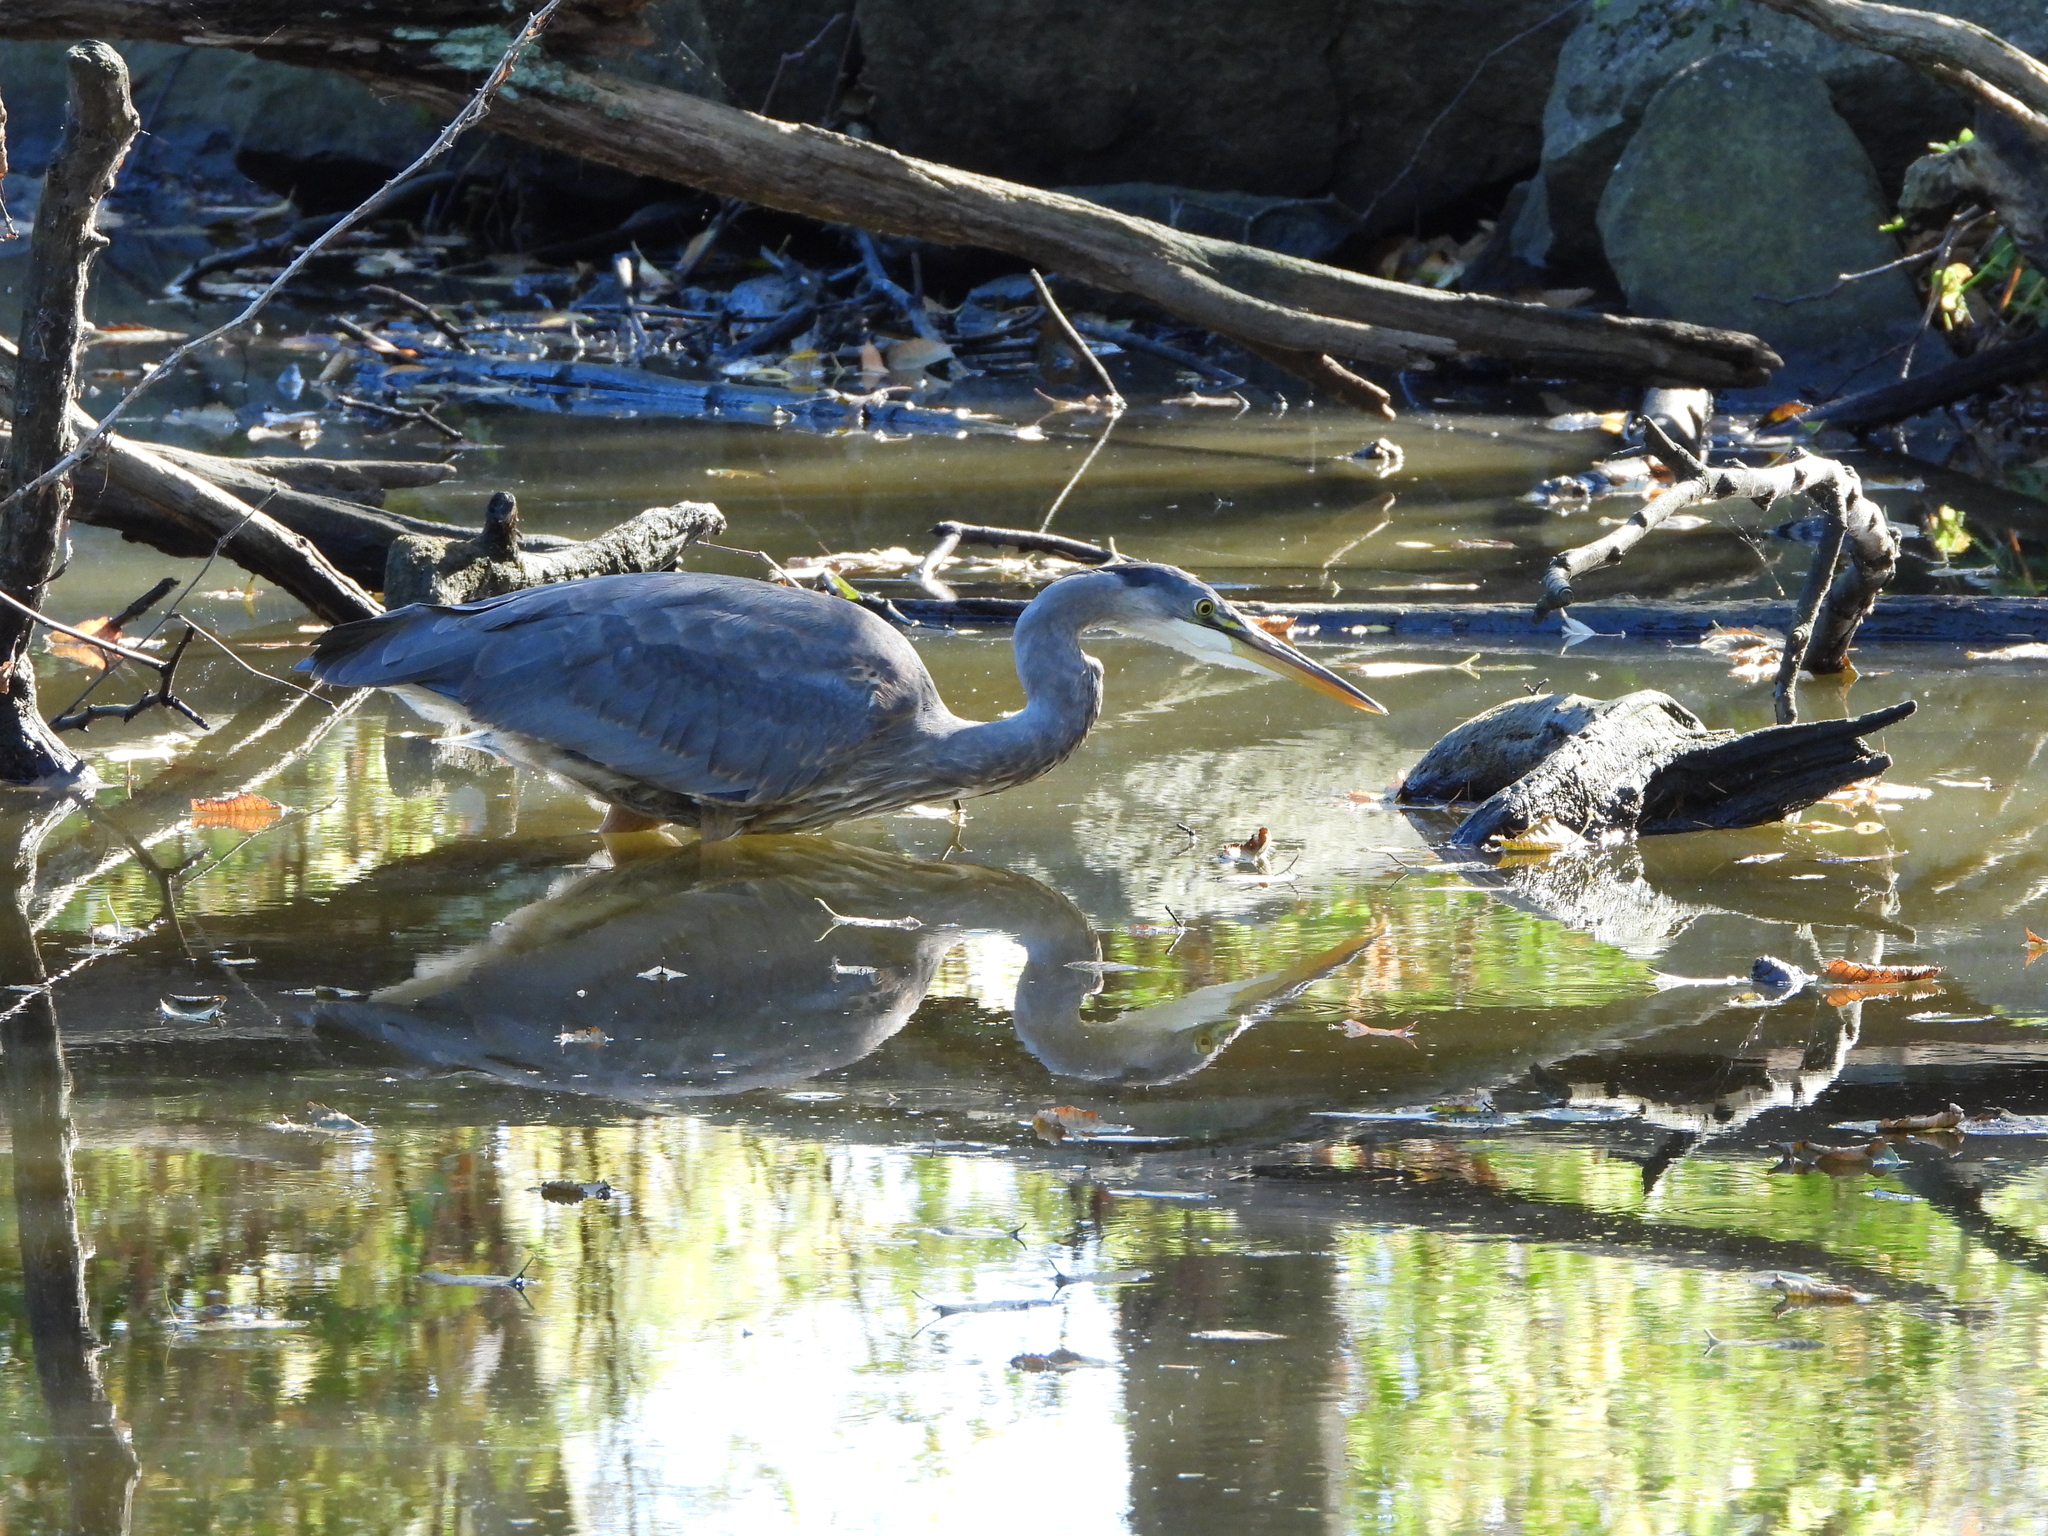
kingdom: Animalia
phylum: Chordata
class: Aves
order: Pelecaniformes
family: Ardeidae
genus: Ardea
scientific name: Ardea herodias
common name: Great blue heron
